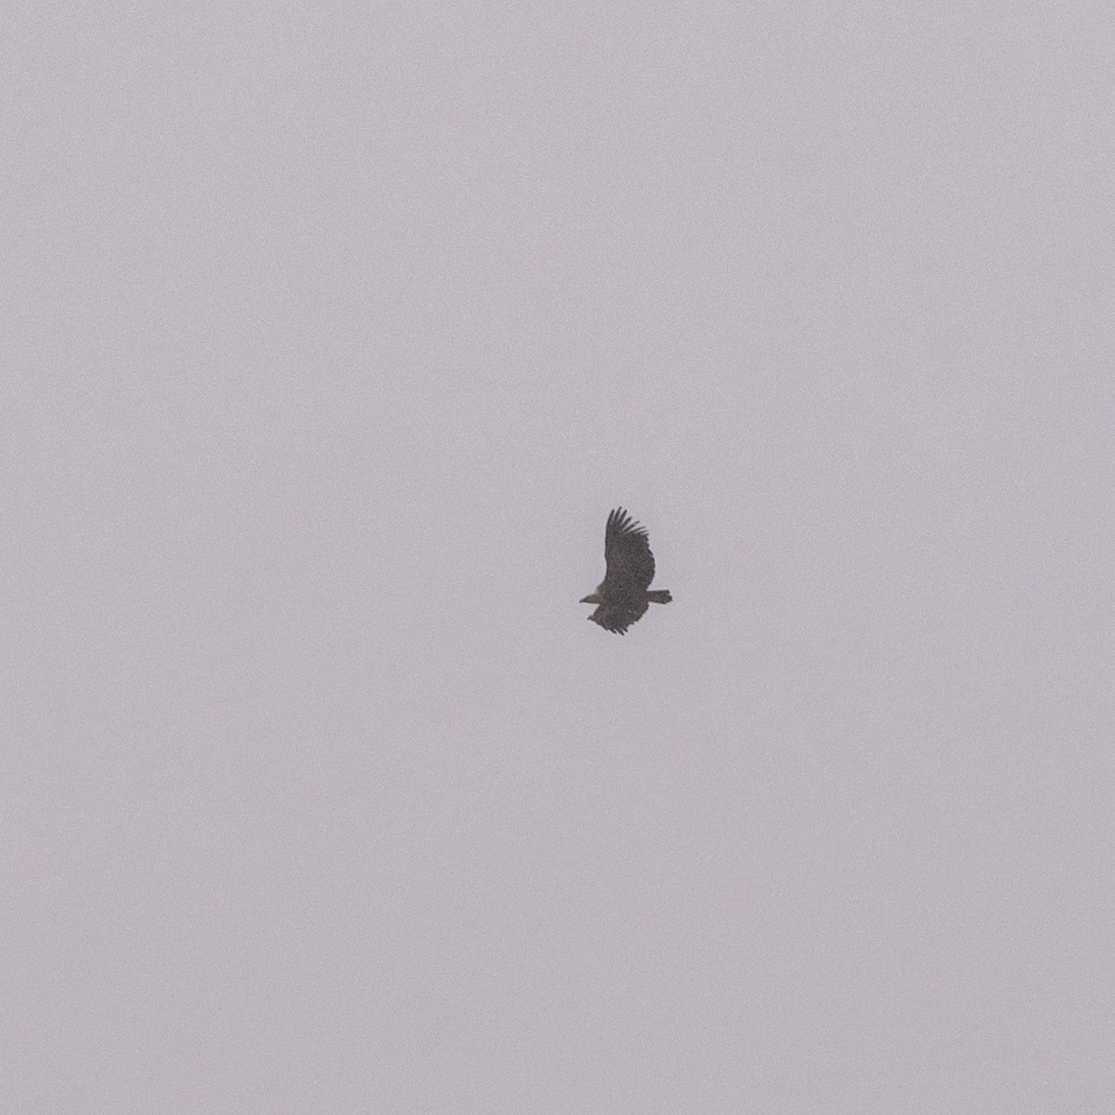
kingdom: Animalia
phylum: Chordata
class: Aves
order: Accipitriformes
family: Accipitridae
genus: Gyps
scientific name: Gyps fulvus
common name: Griffon vulture
